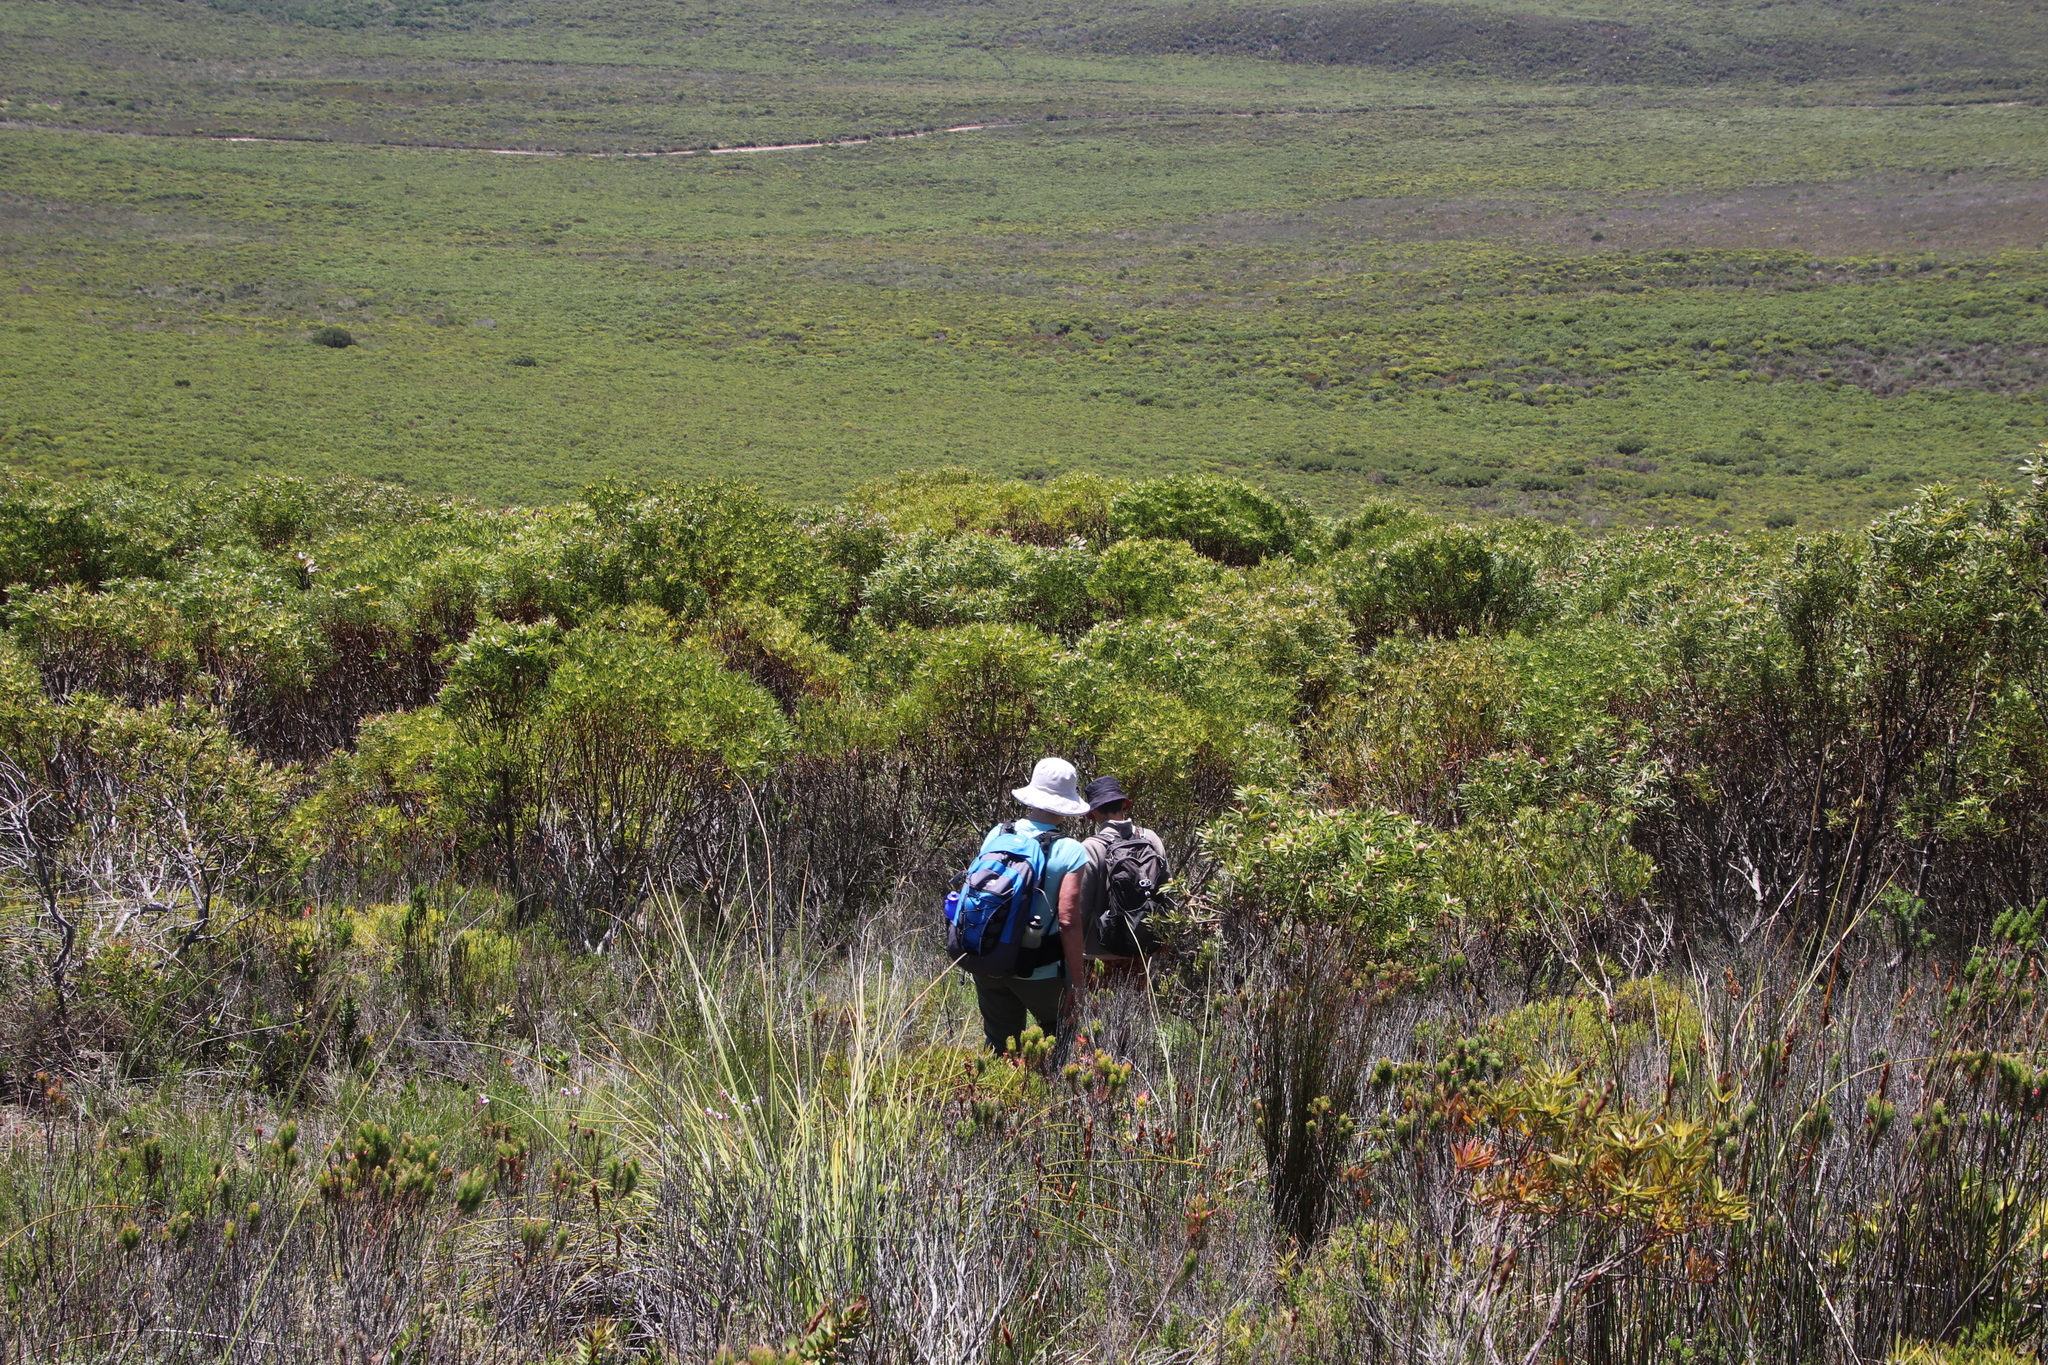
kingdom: Plantae
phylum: Tracheophyta
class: Magnoliopsida
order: Proteales
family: Proteaceae
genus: Leucadendron
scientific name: Leucadendron coniferum
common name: Dune conebush
